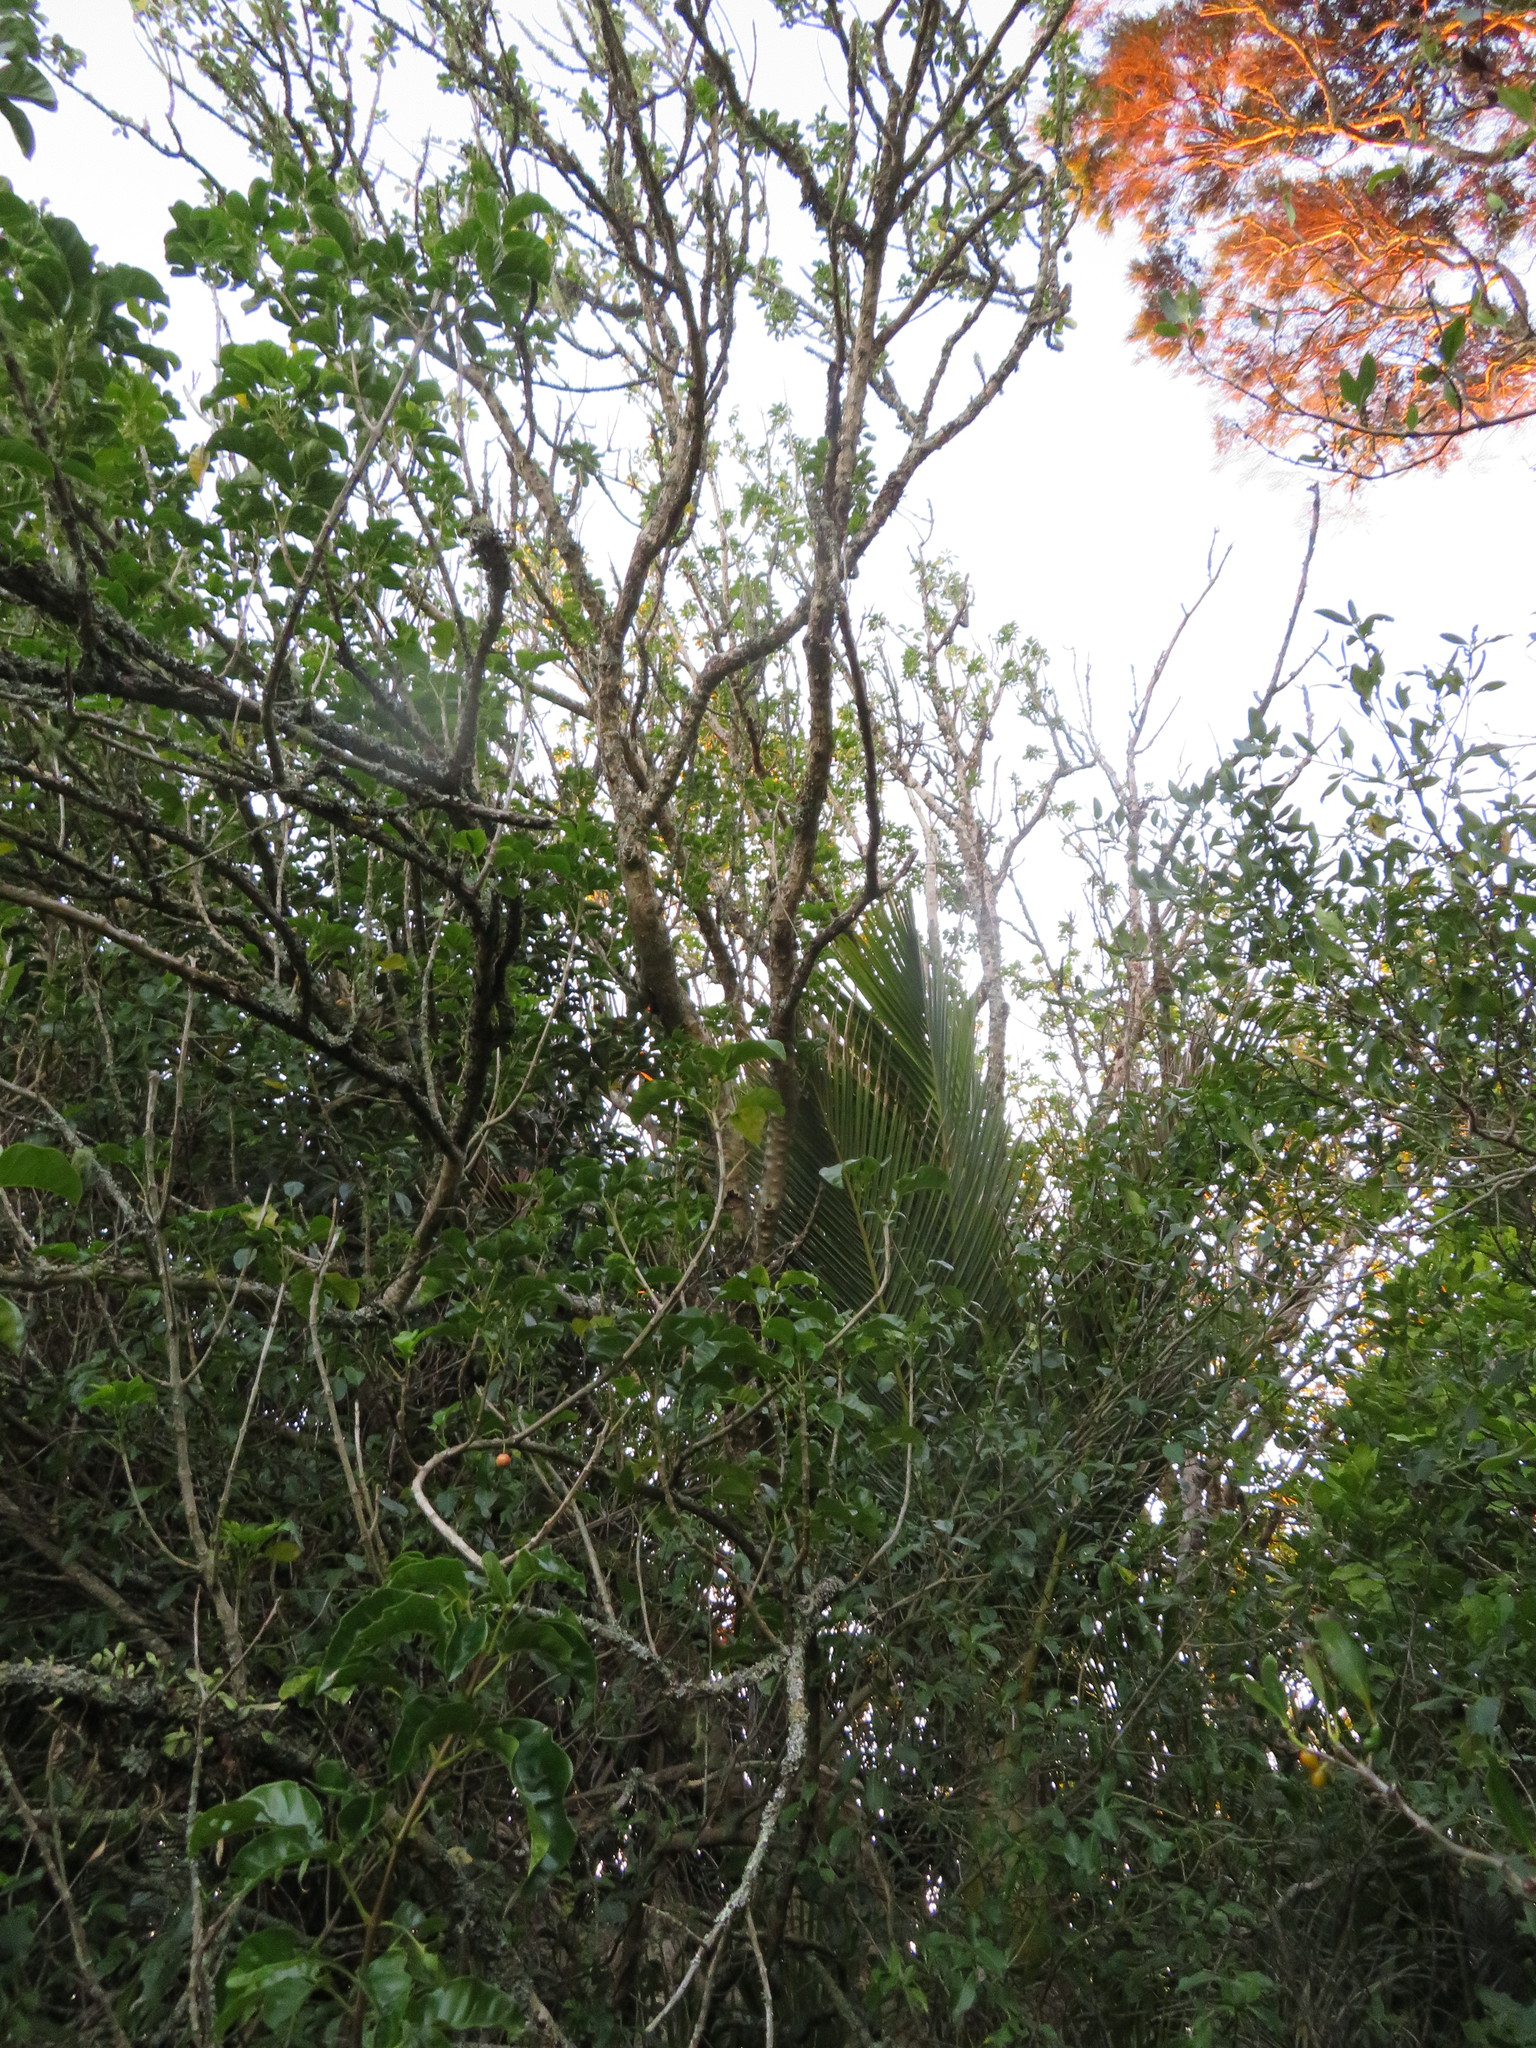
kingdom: Plantae
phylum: Tracheophyta
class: Magnoliopsida
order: Lamiales
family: Lamiaceae
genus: Vitex
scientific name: Vitex lucens
